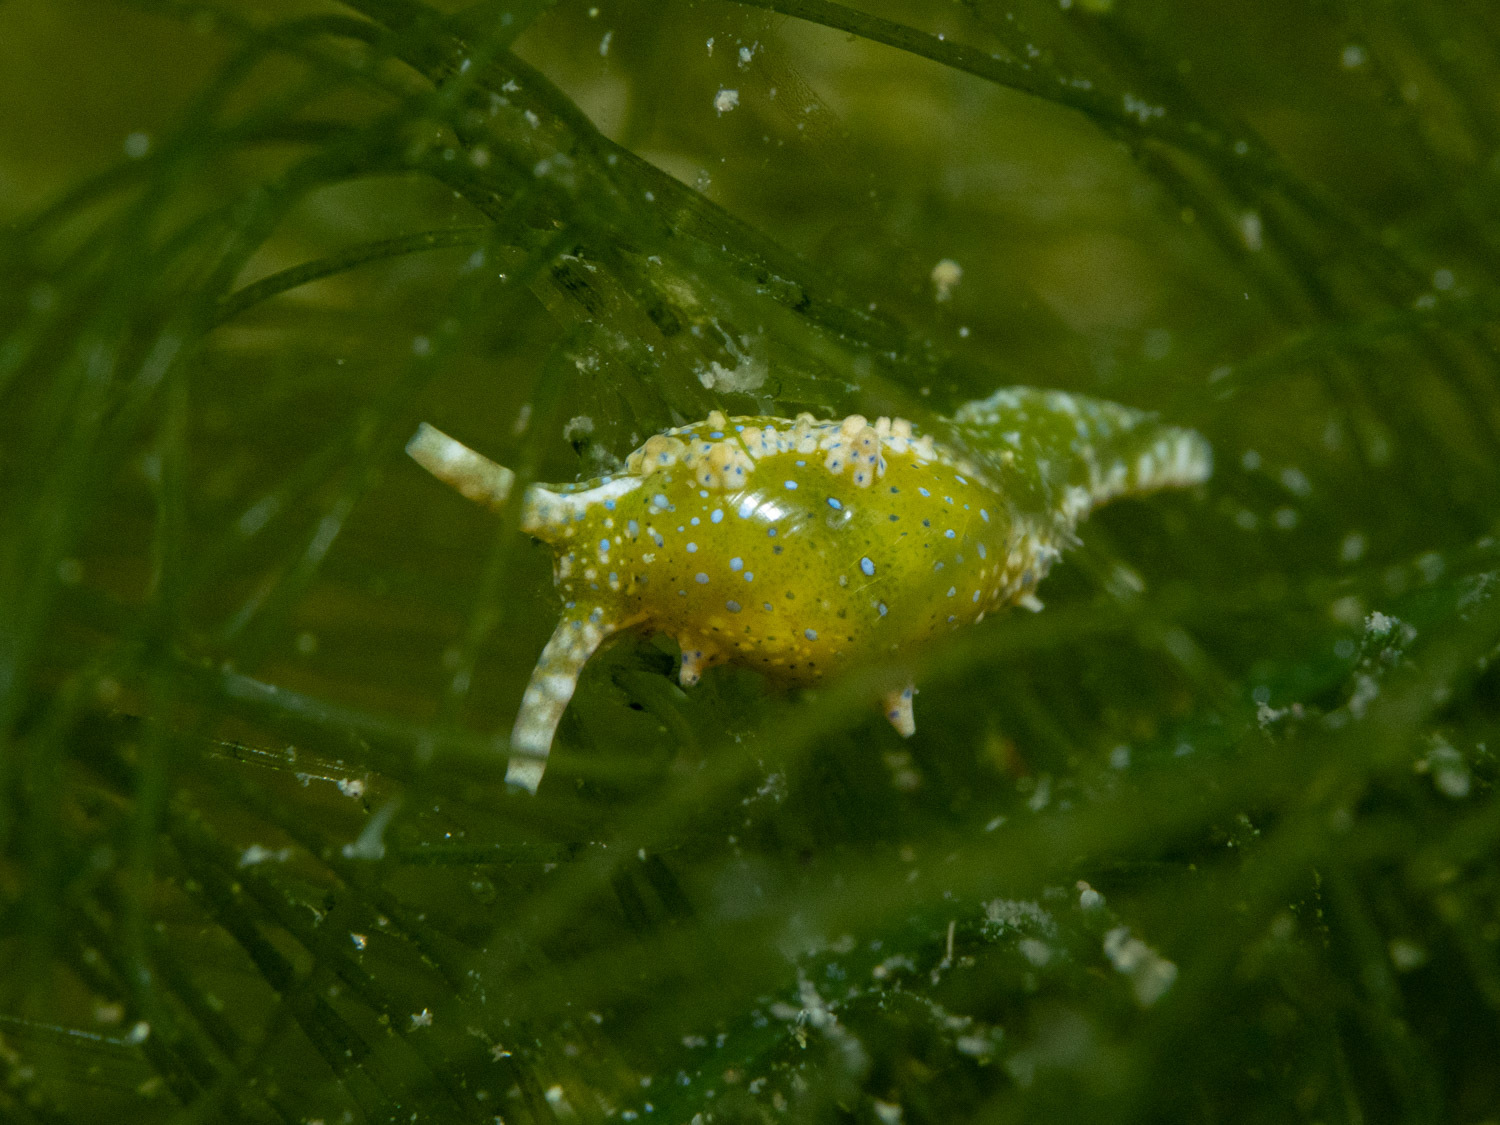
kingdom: Animalia
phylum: Mollusca
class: Gastropoda
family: Oxynoidae
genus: Oxynoe
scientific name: Oxynoe viridis
